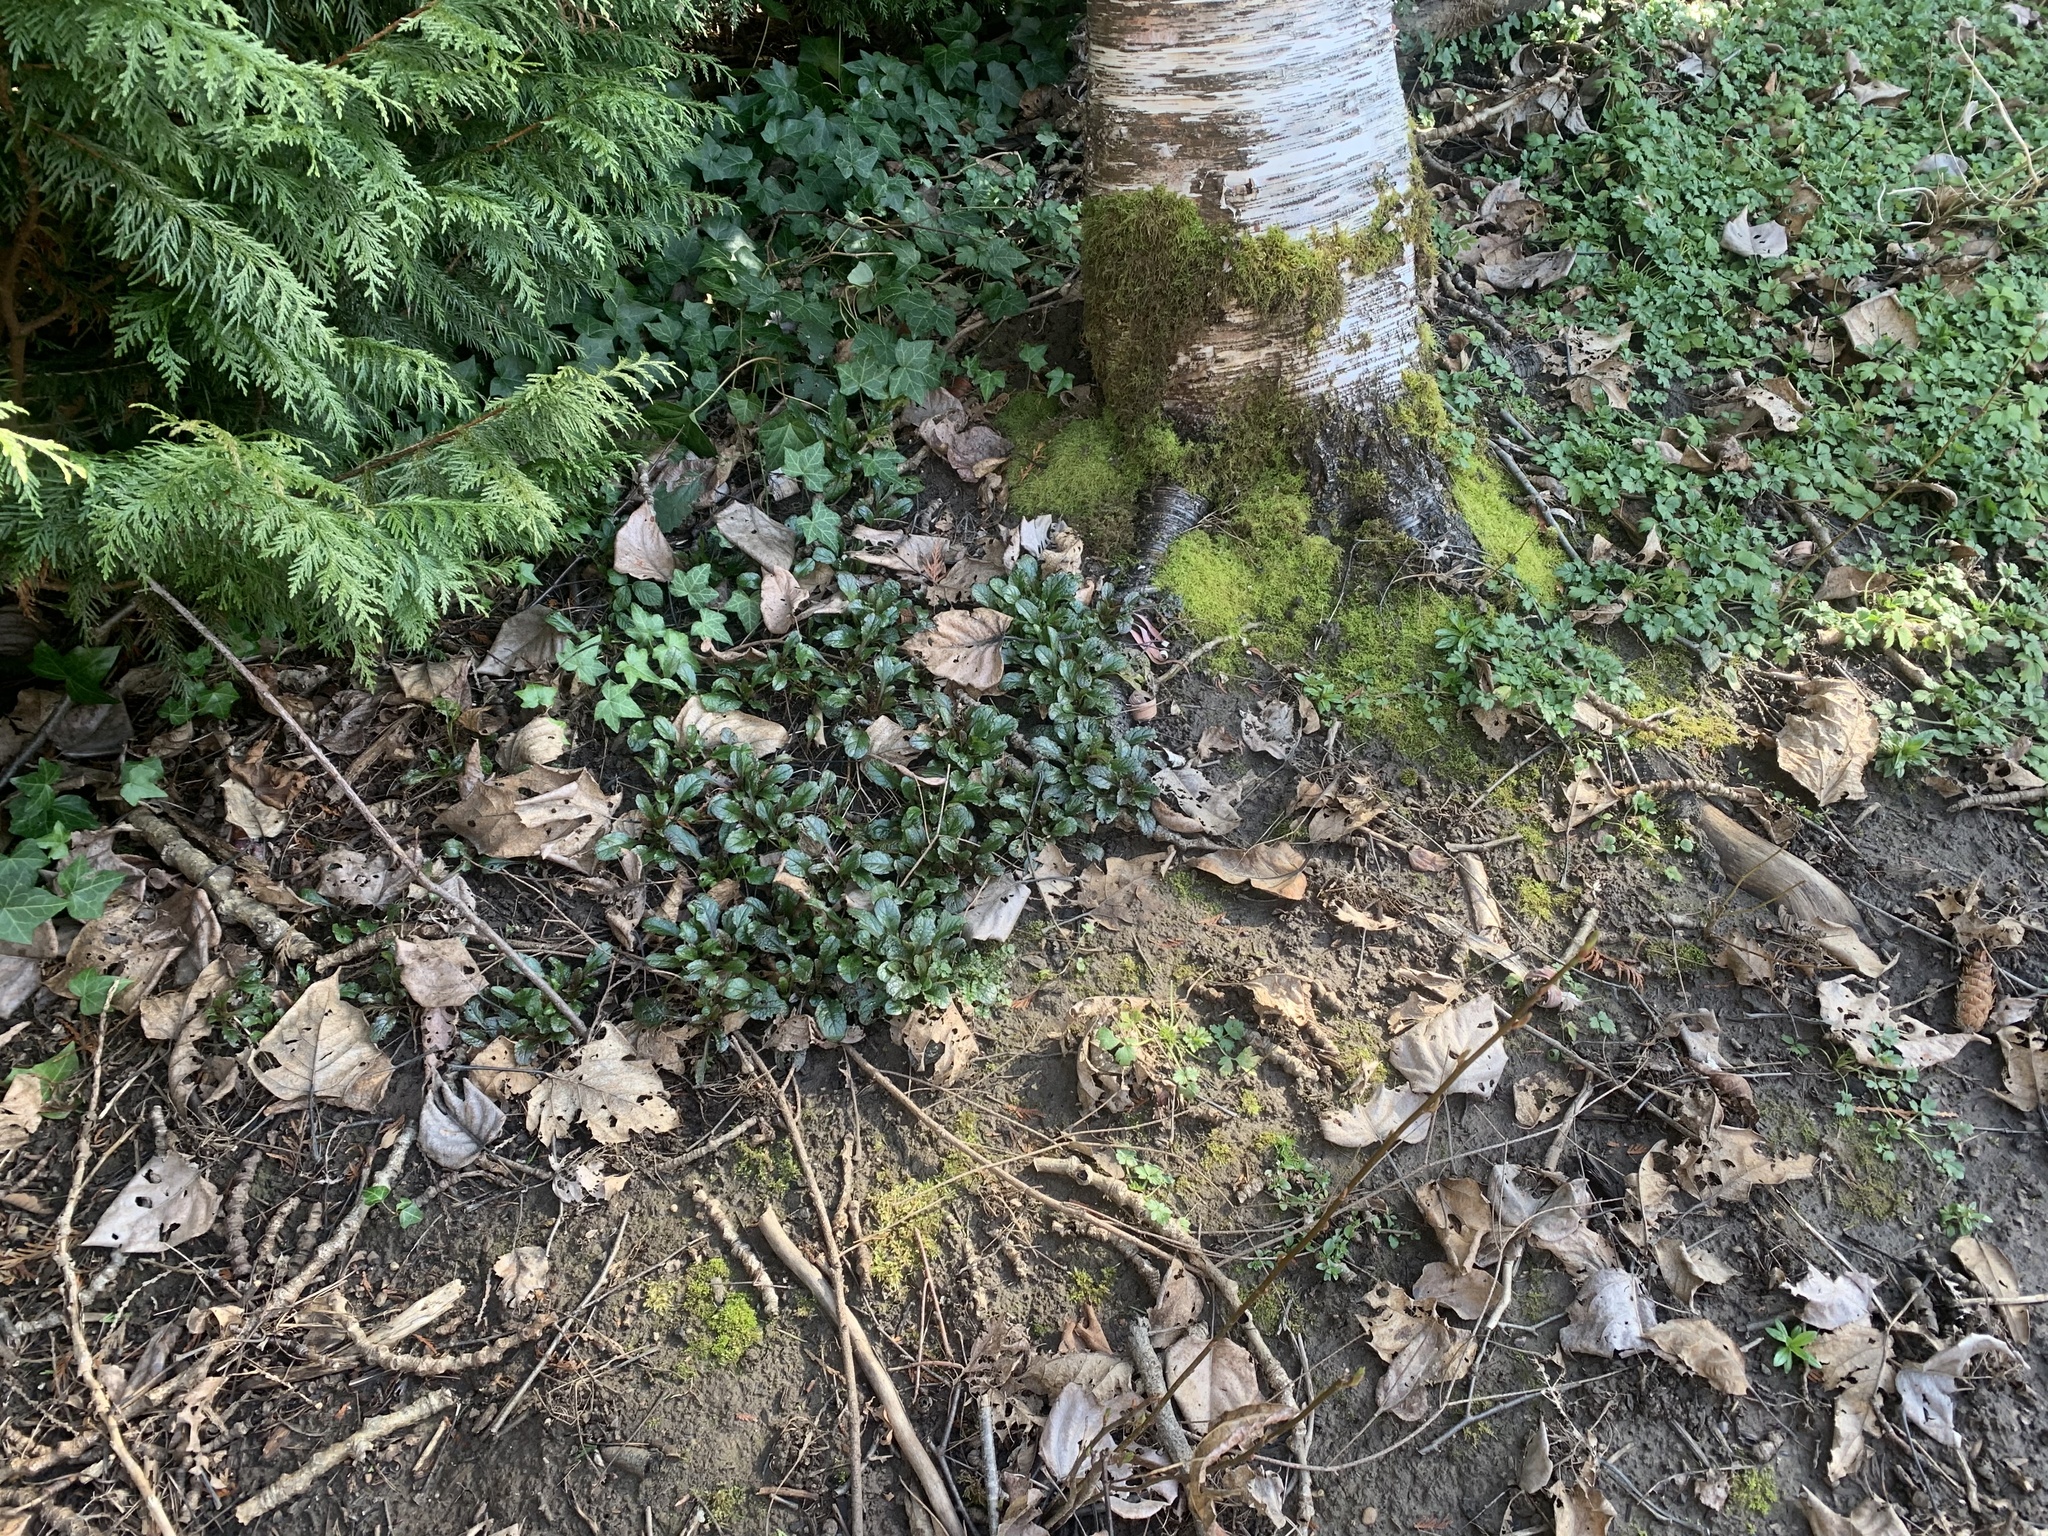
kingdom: Plantae
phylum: Tracheophyta
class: Magnoliopsida
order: Lamiales
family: Lamiaceae
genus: Ajuga
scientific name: Ajuga reptans
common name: Bugle
